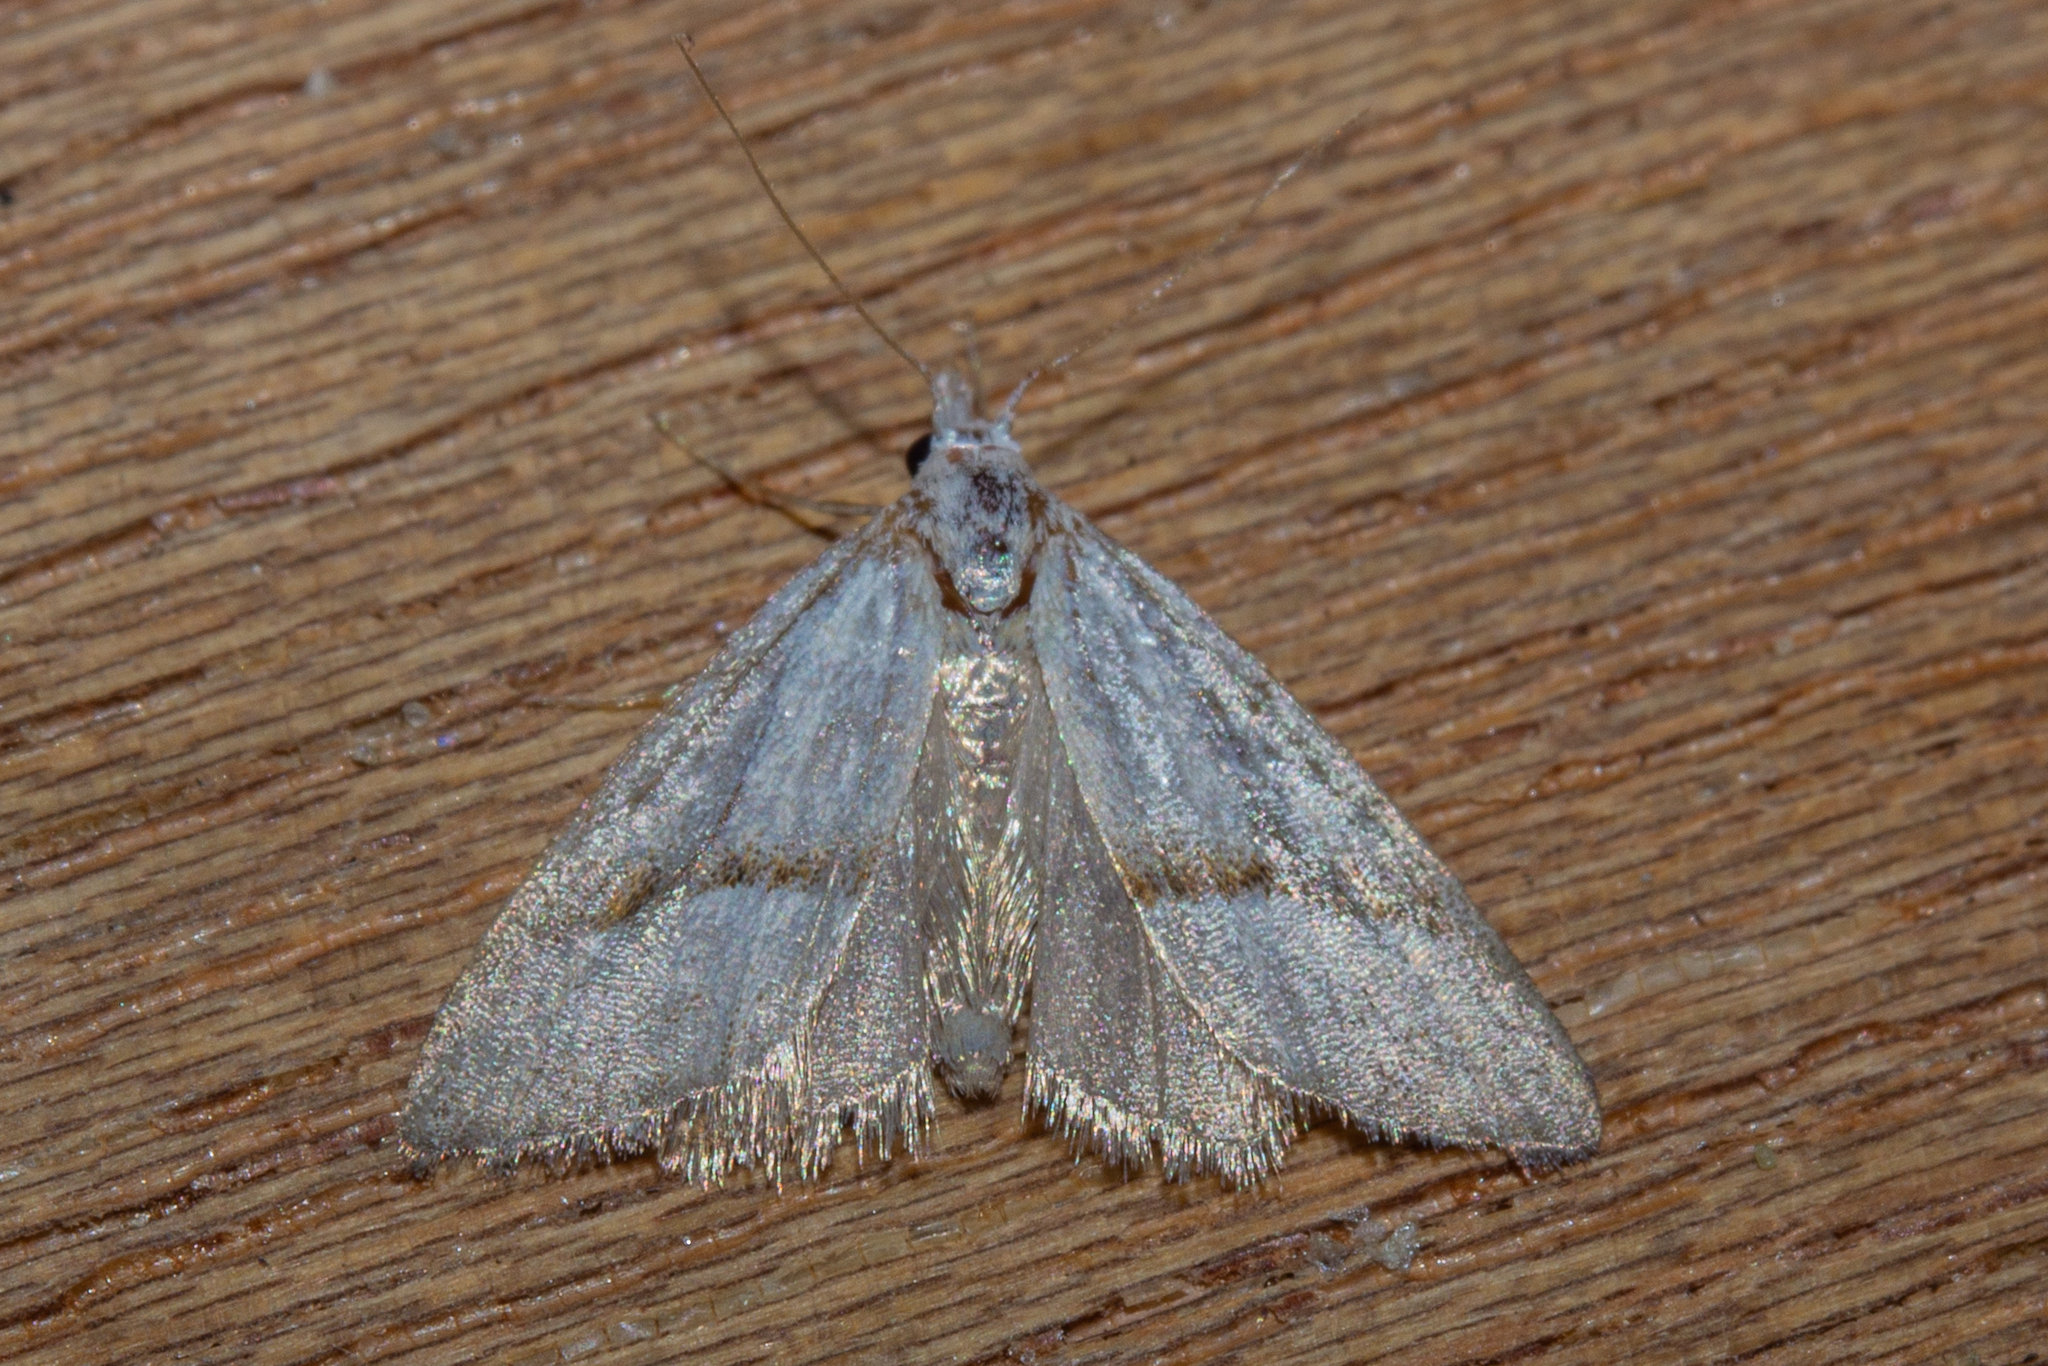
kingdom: Animalia
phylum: Arthropoda
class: Insecta
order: Lepidoptera
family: Nolidae
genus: Nola
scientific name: Nola parvitis
